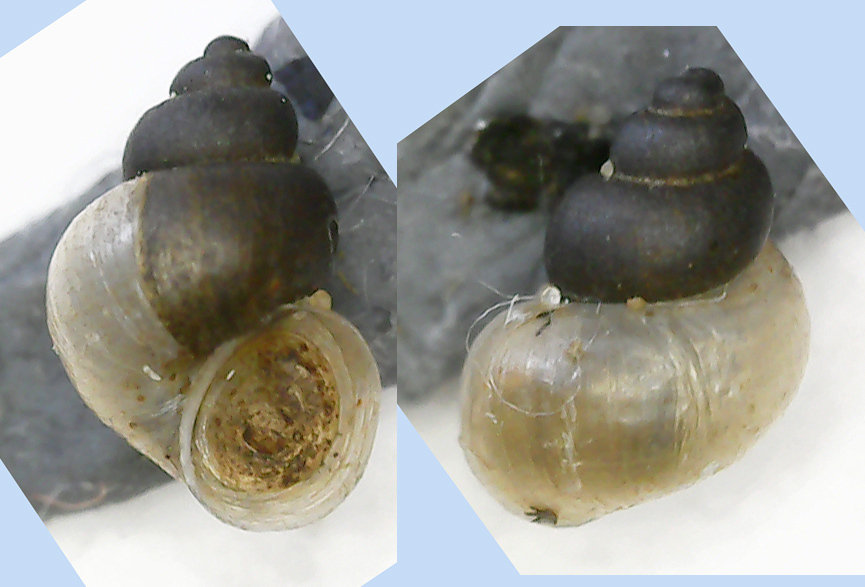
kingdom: Animalia
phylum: Mollusca
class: Gastropoda
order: Littorinimorpha
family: Bithyniidae
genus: Bithynia
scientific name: Bithynia leachii
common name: Leach's bithynia
